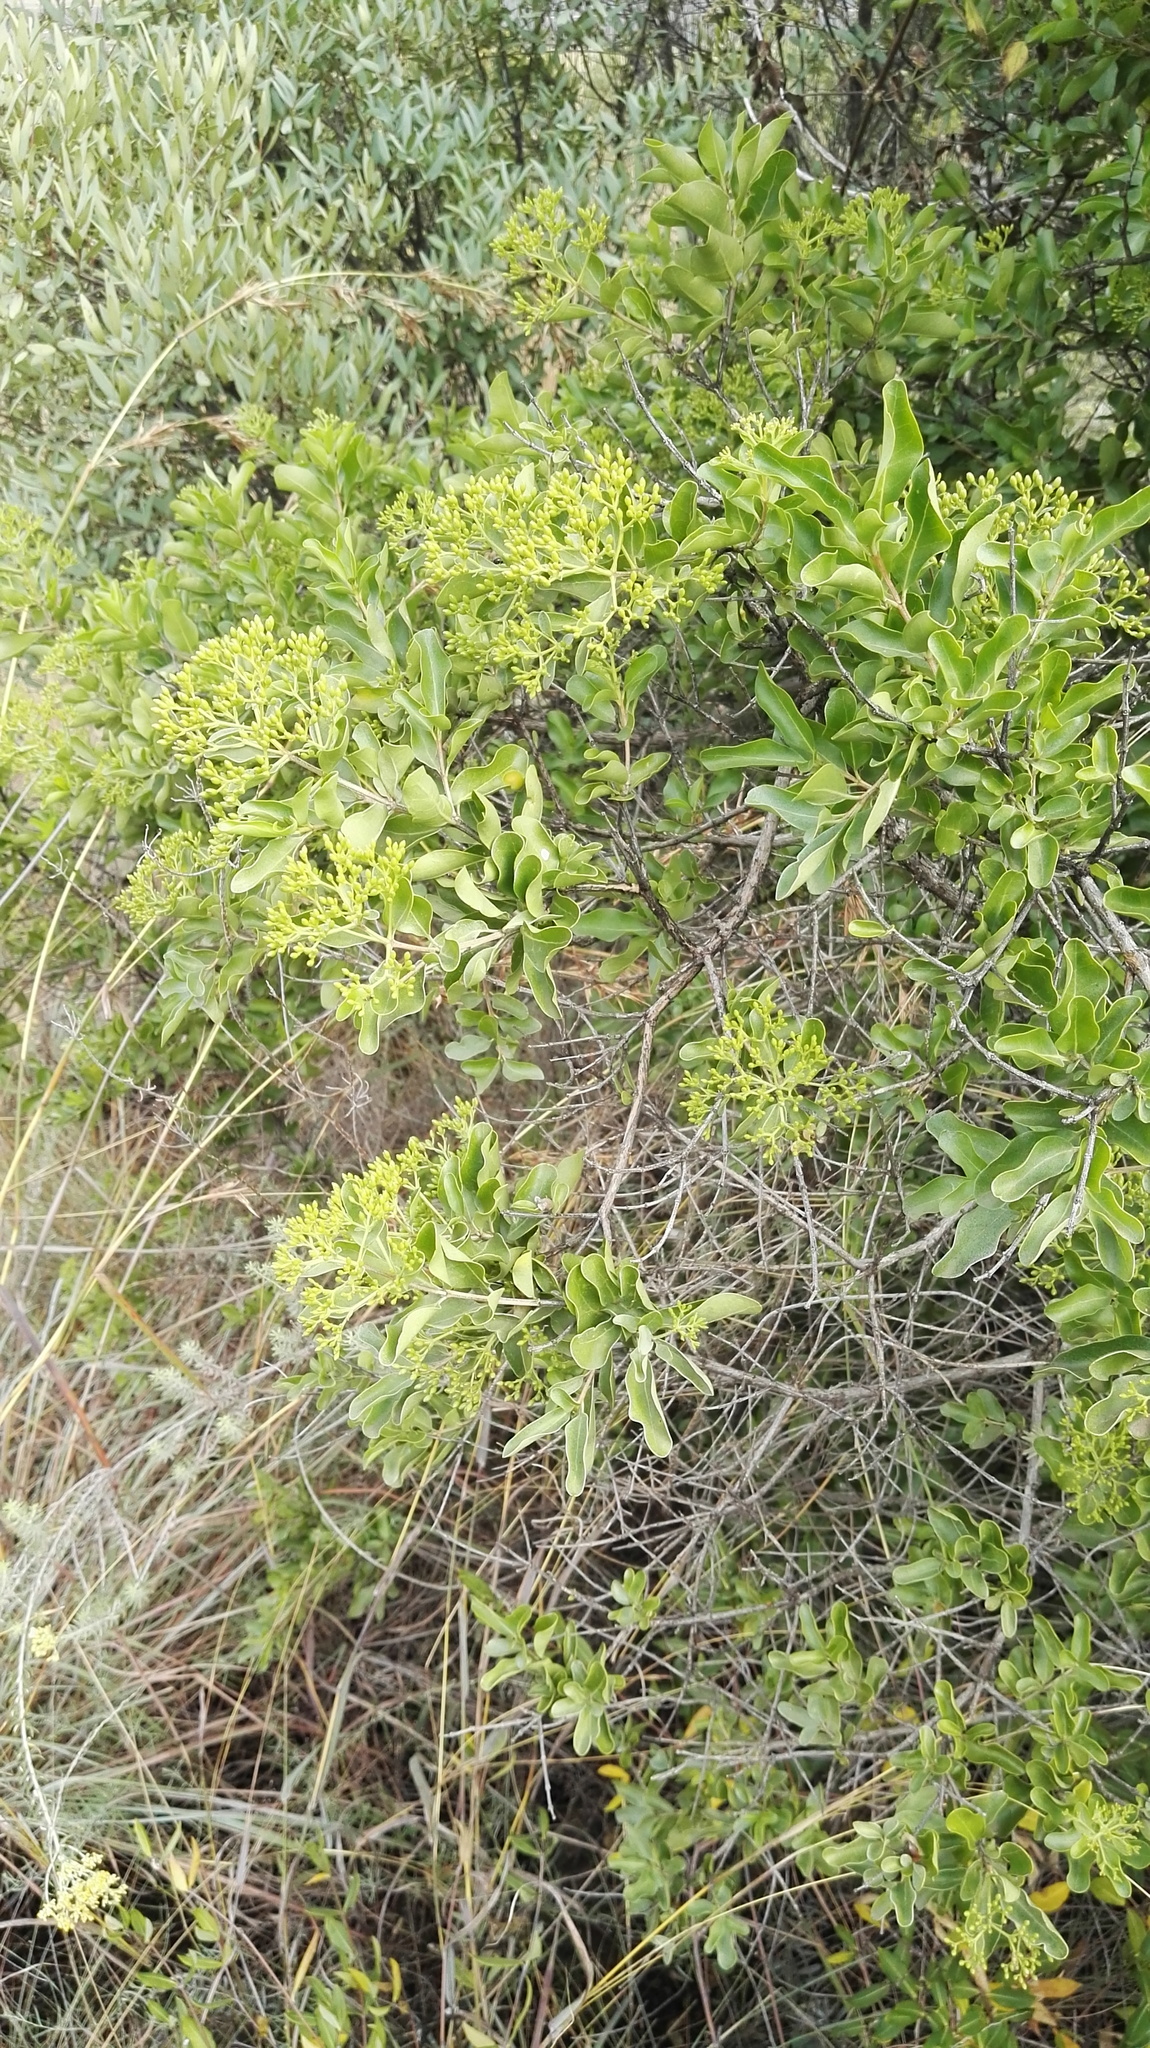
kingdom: Plantae
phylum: Tracheophyta
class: Magnoliopsida
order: Lamiales
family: Stilbaceae
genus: Nuxia
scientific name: Nuxia congesta
